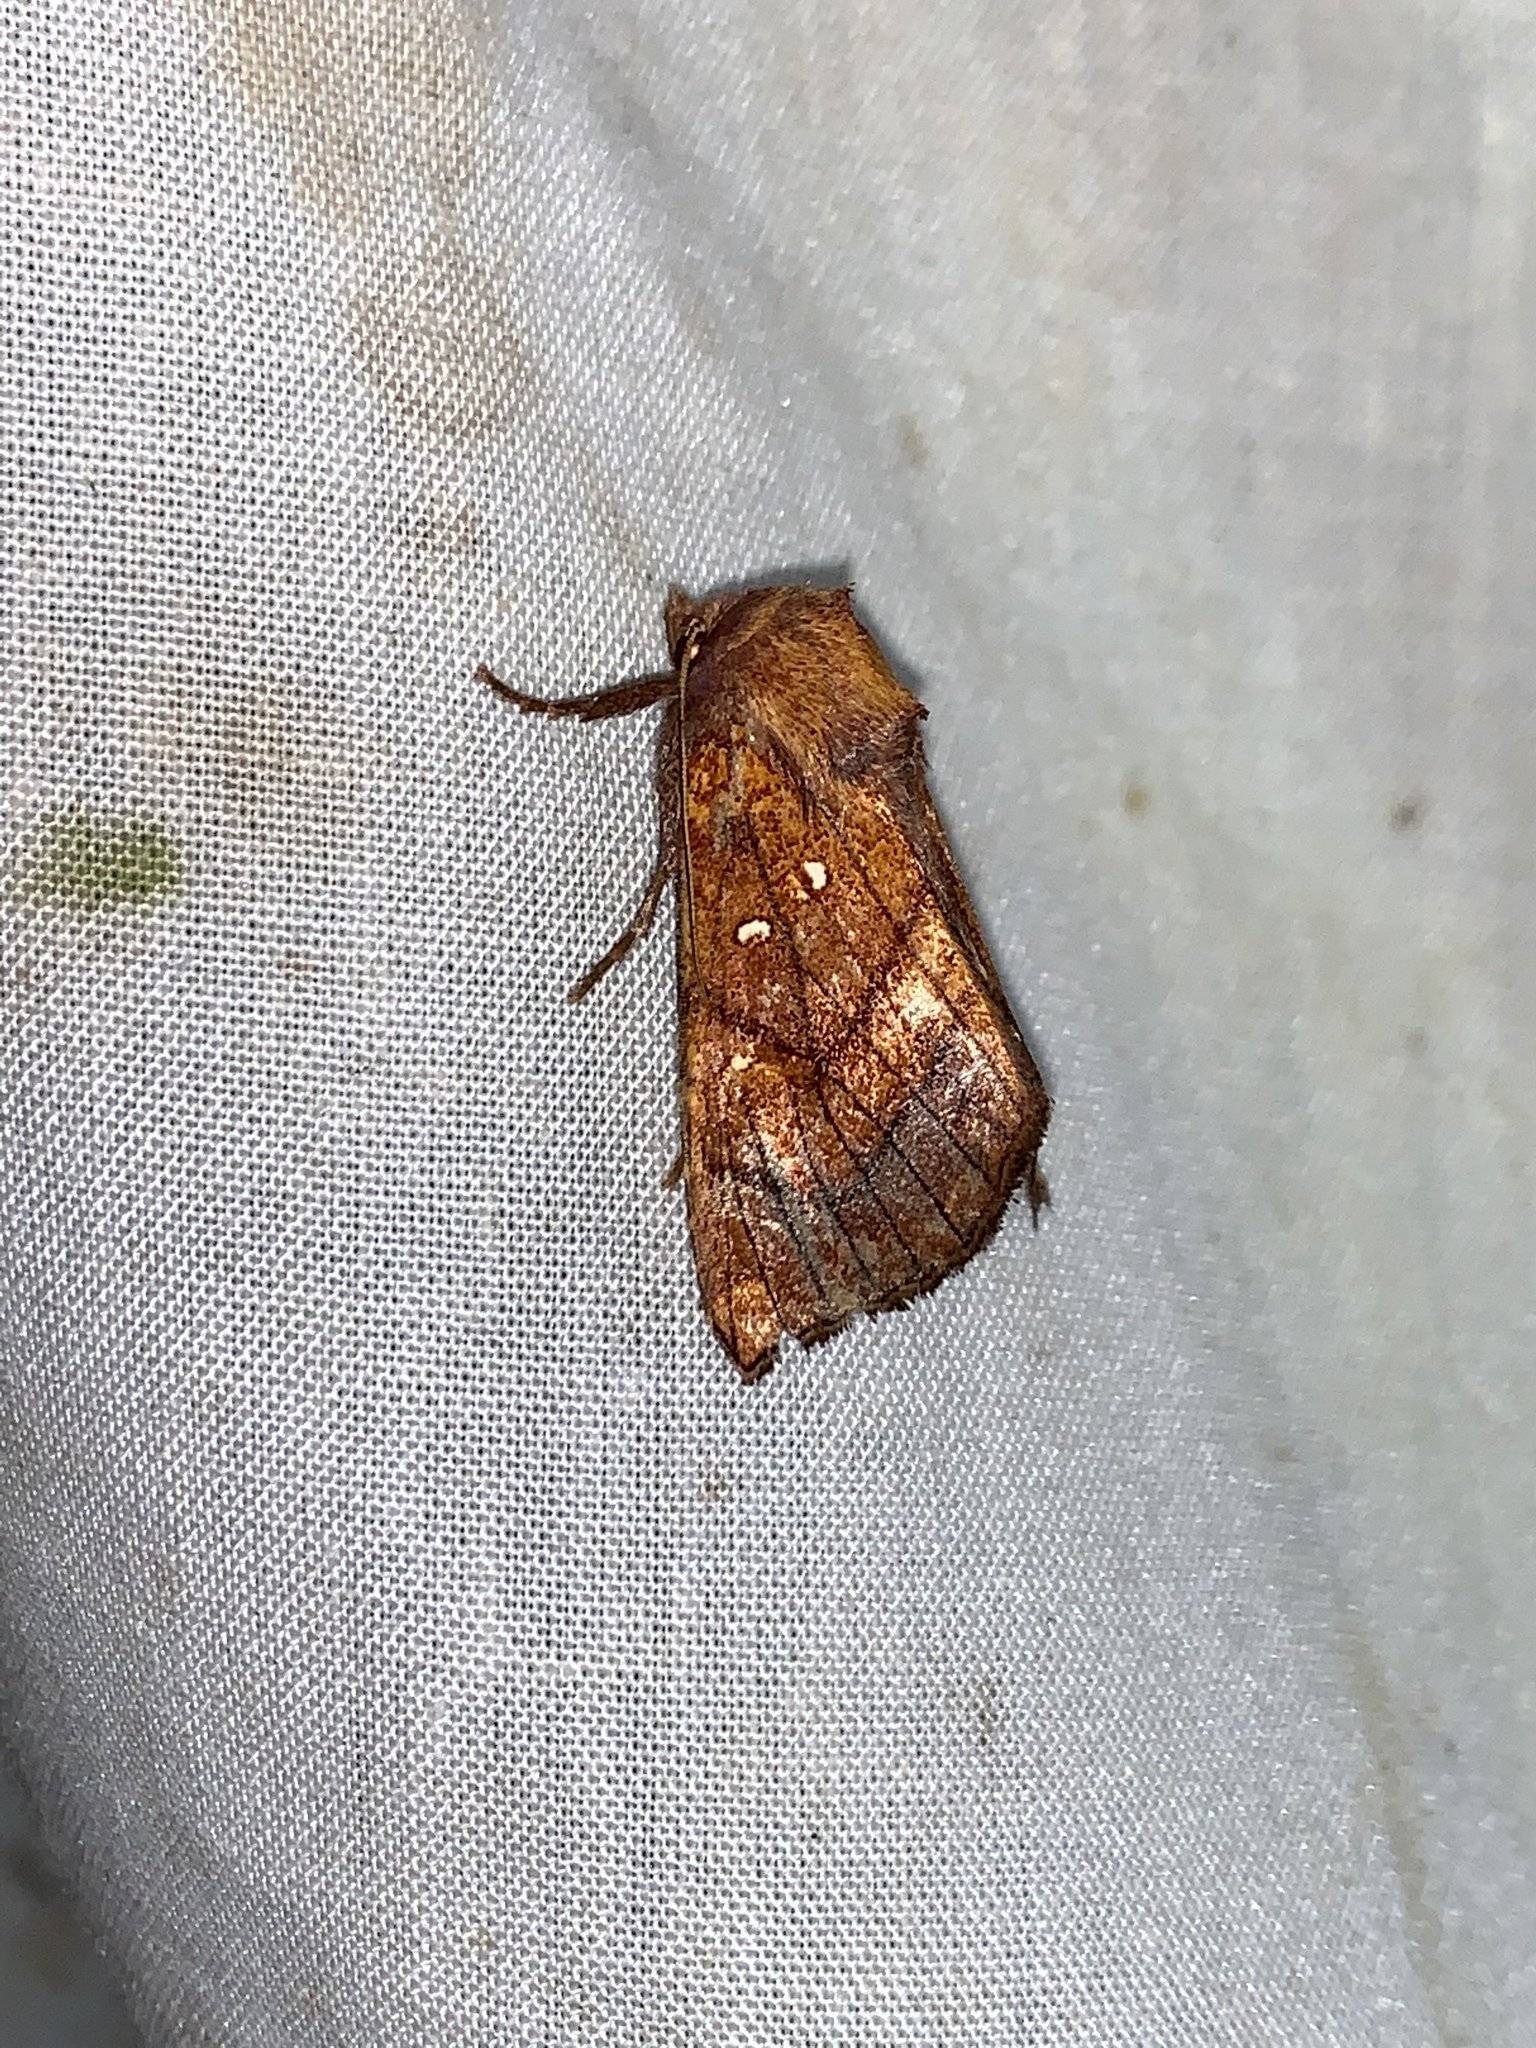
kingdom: Animalia
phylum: Arthropoda
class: Insecta
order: Lepidoptera
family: Noctuidae
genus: Papaipema
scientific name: Papaipema inquaesita
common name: Sensitive fern borer moth
